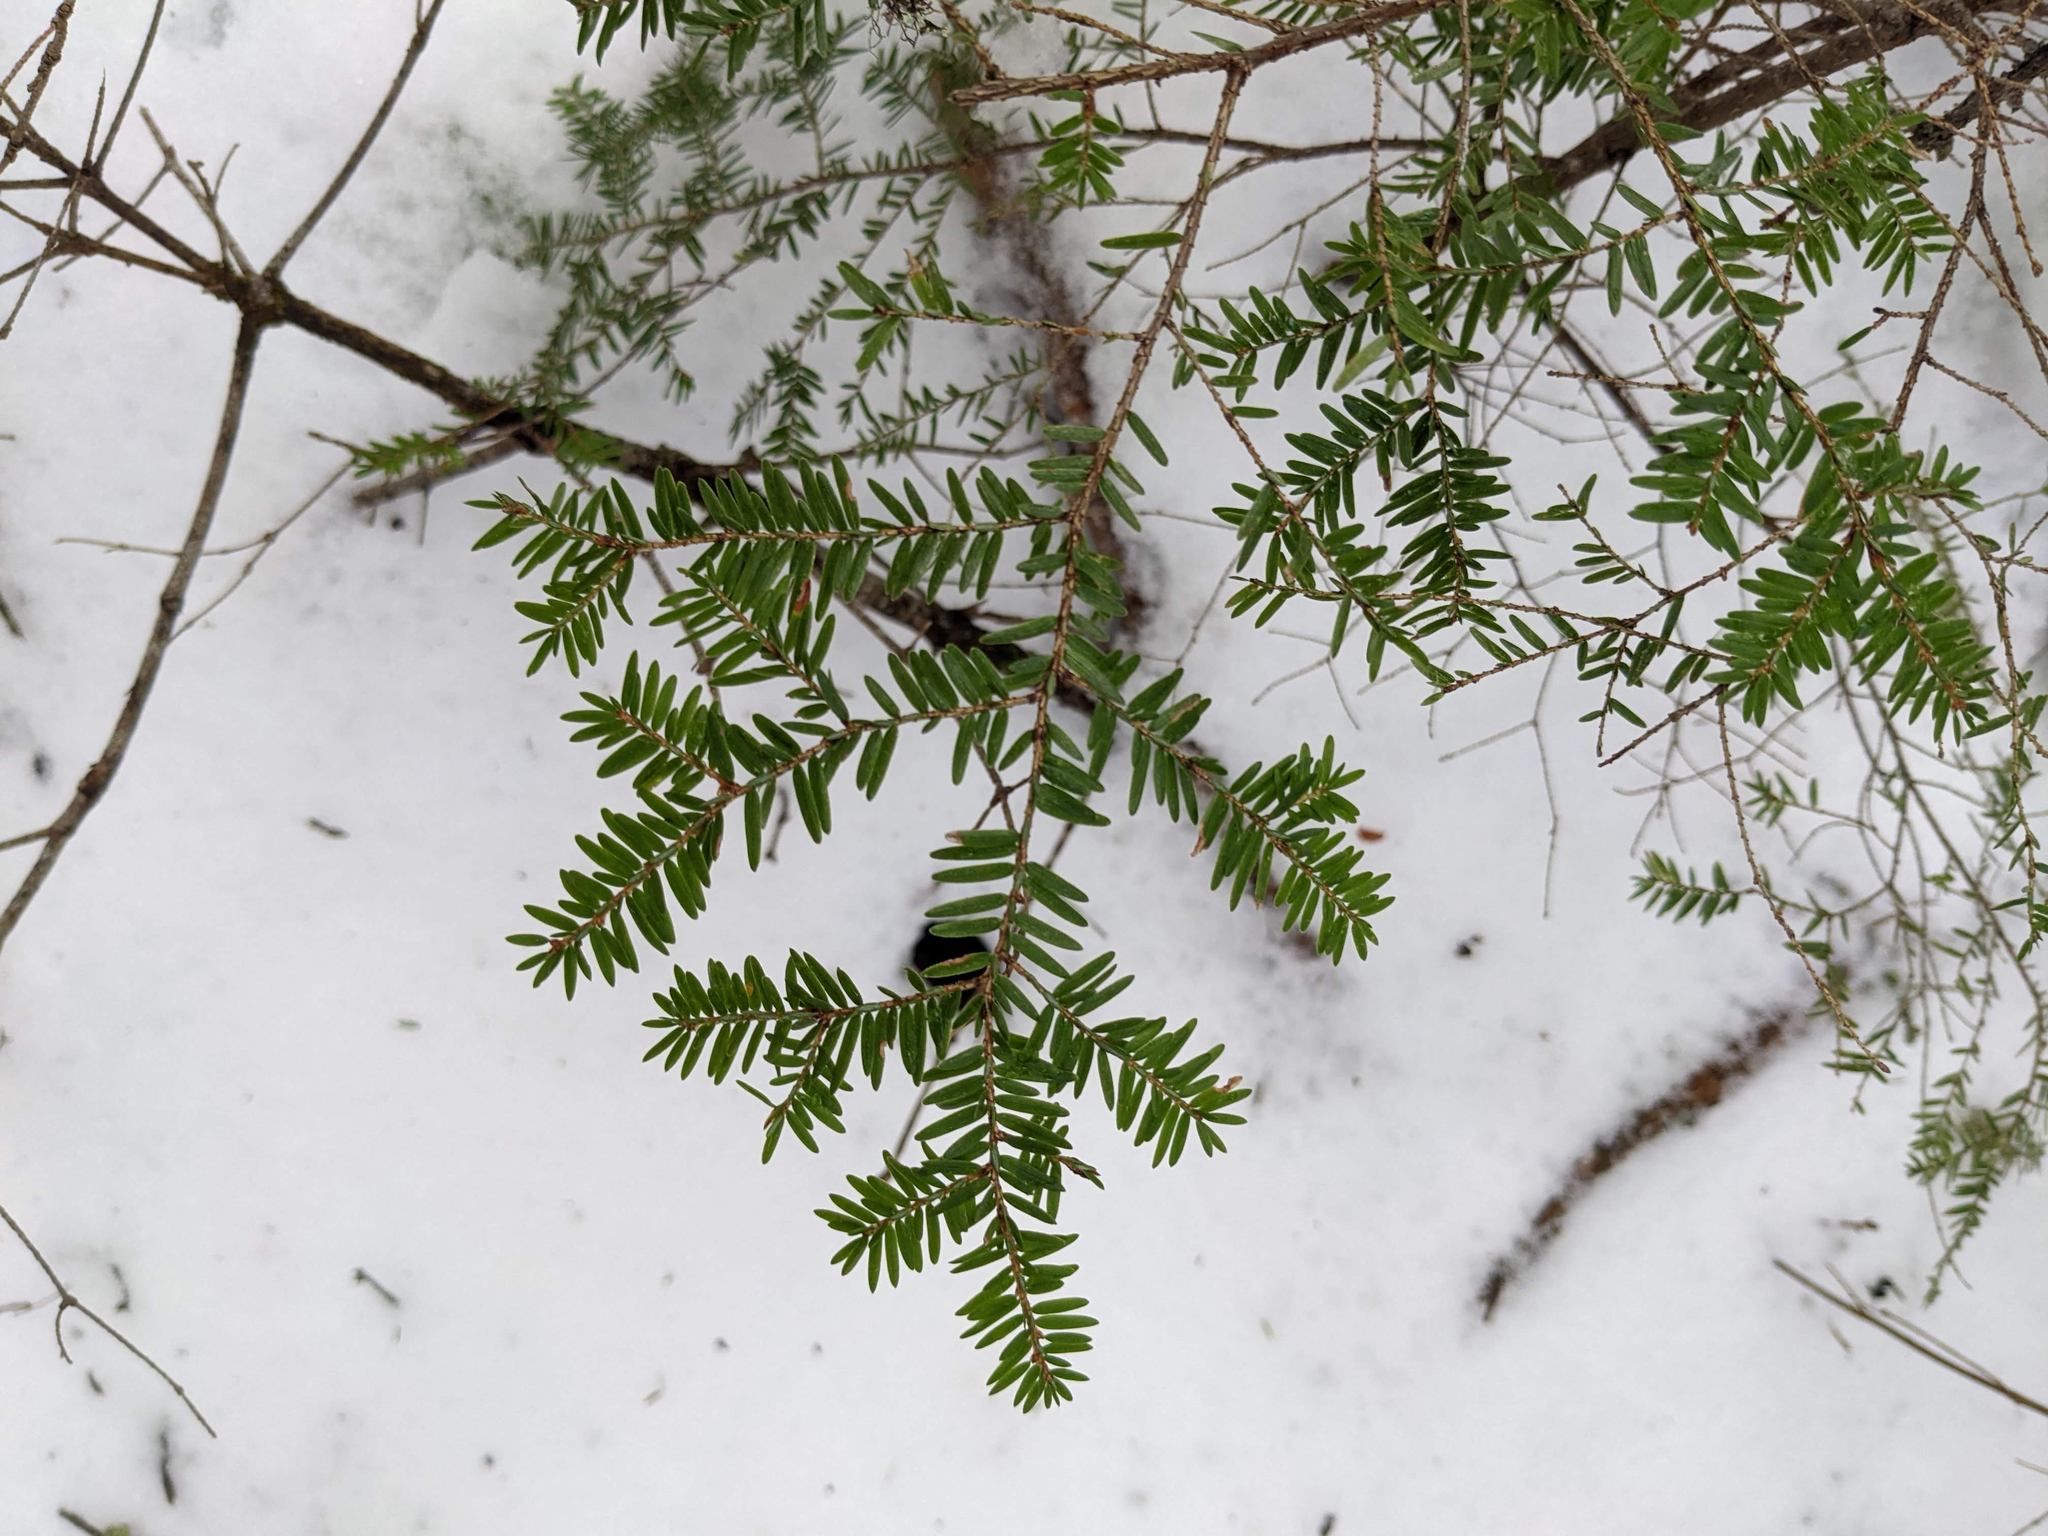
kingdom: Plantae
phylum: Tracheophyta
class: Pinopsida
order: Pinales
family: Pinaceae
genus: Tsuga
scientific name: Tsuga canadensis
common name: Eastern hemlock
